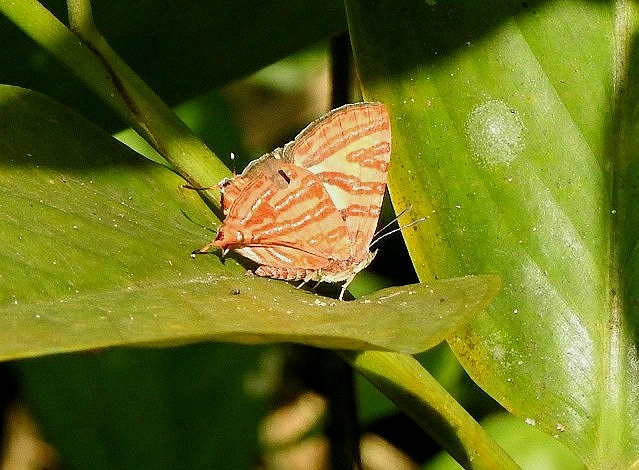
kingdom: Animalia
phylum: Arthropoda
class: Insecta
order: Lepidoptera
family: Lycaenidae
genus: Cigaritis
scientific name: Cigaritis lohita
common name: Long-banded silverline
